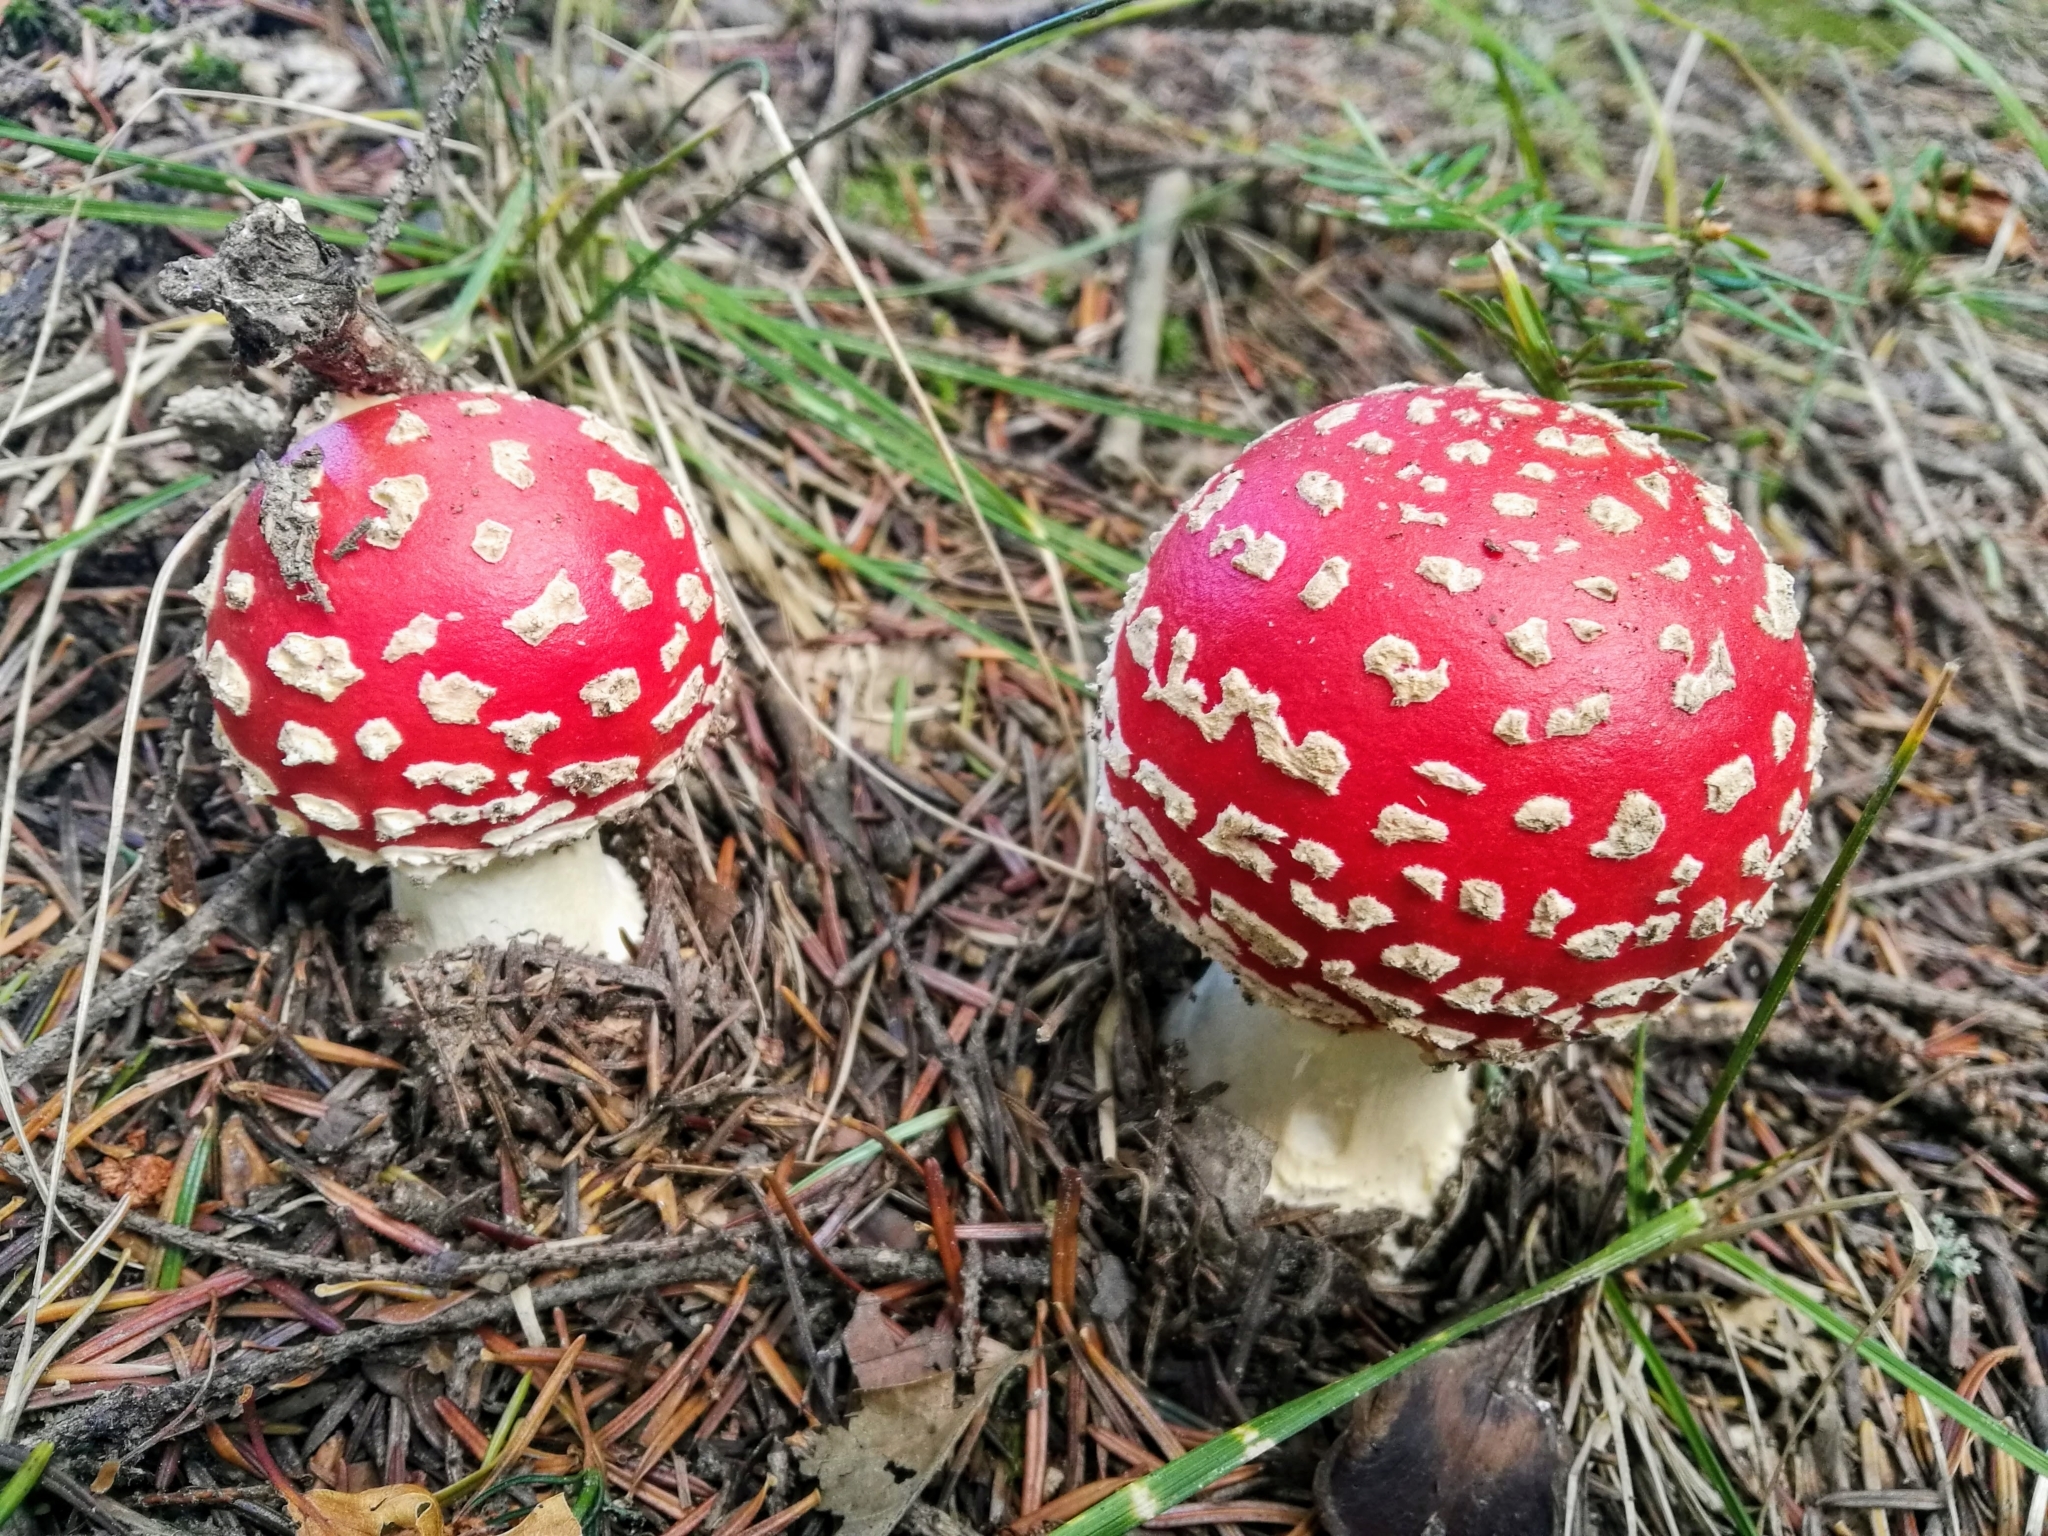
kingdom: Fungi
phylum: Basidiomycota
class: Agaricomycetes
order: Agaricales
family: Amanitaceae
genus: Amanita
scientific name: Amanita muscaria
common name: Fly agaric
